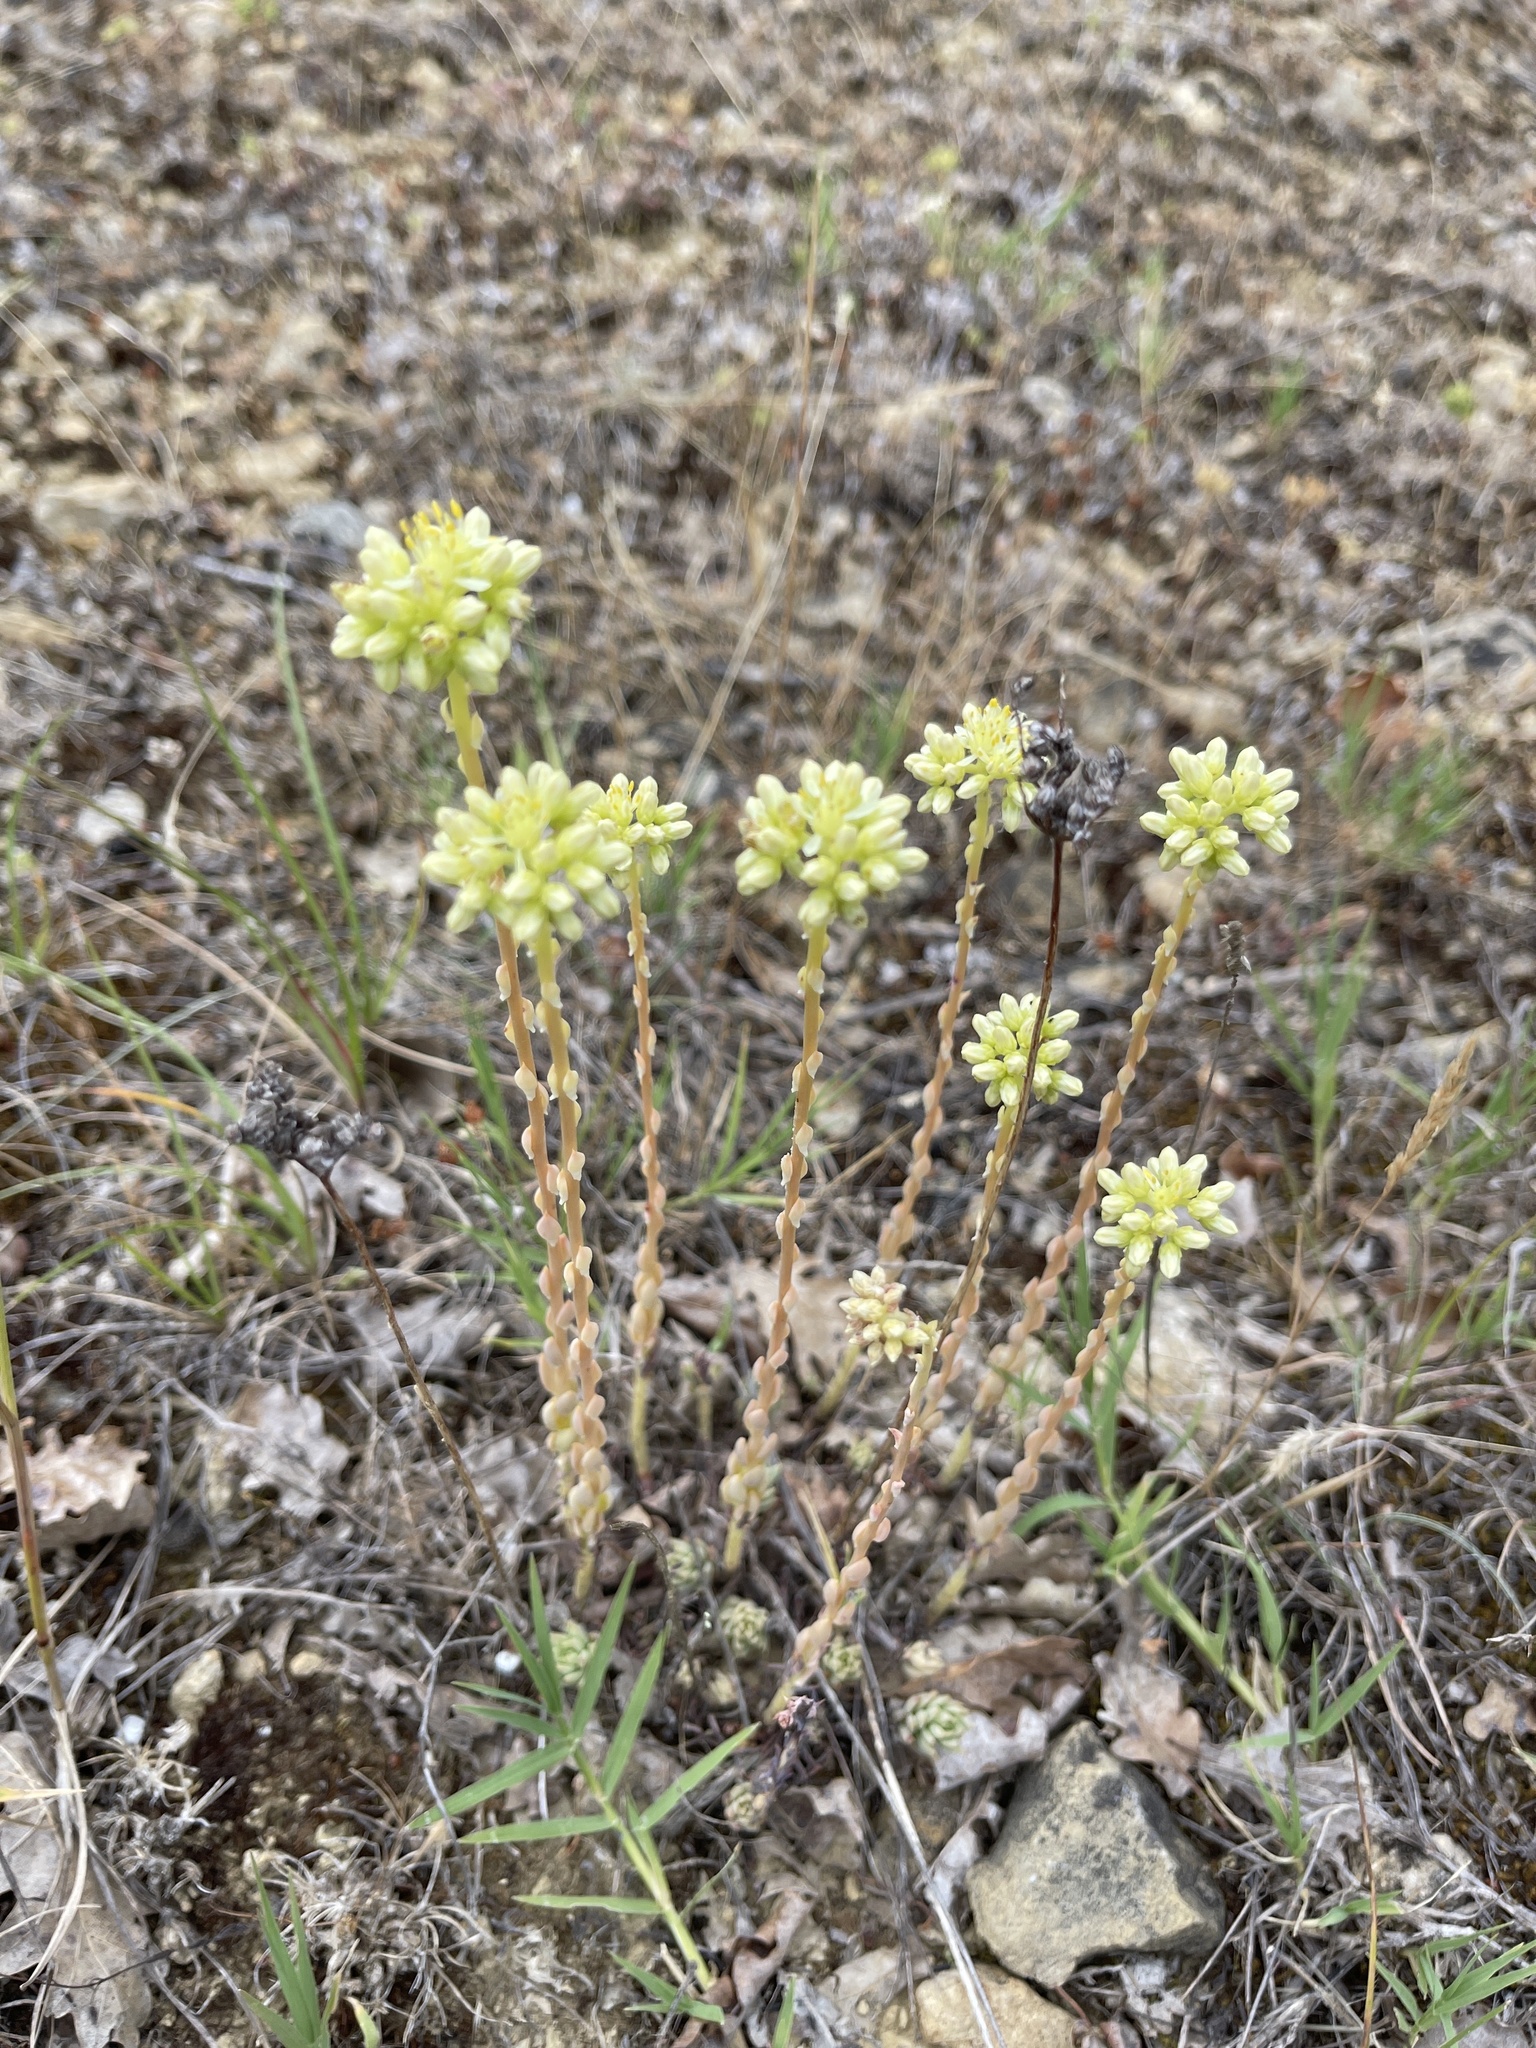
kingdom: Plantae
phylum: Tracheophyta
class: Magnoliopsida
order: Saxifragales
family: Crassulaceae
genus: Petrosedum
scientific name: Petrosedum sediforme
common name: Pale stonecrop
